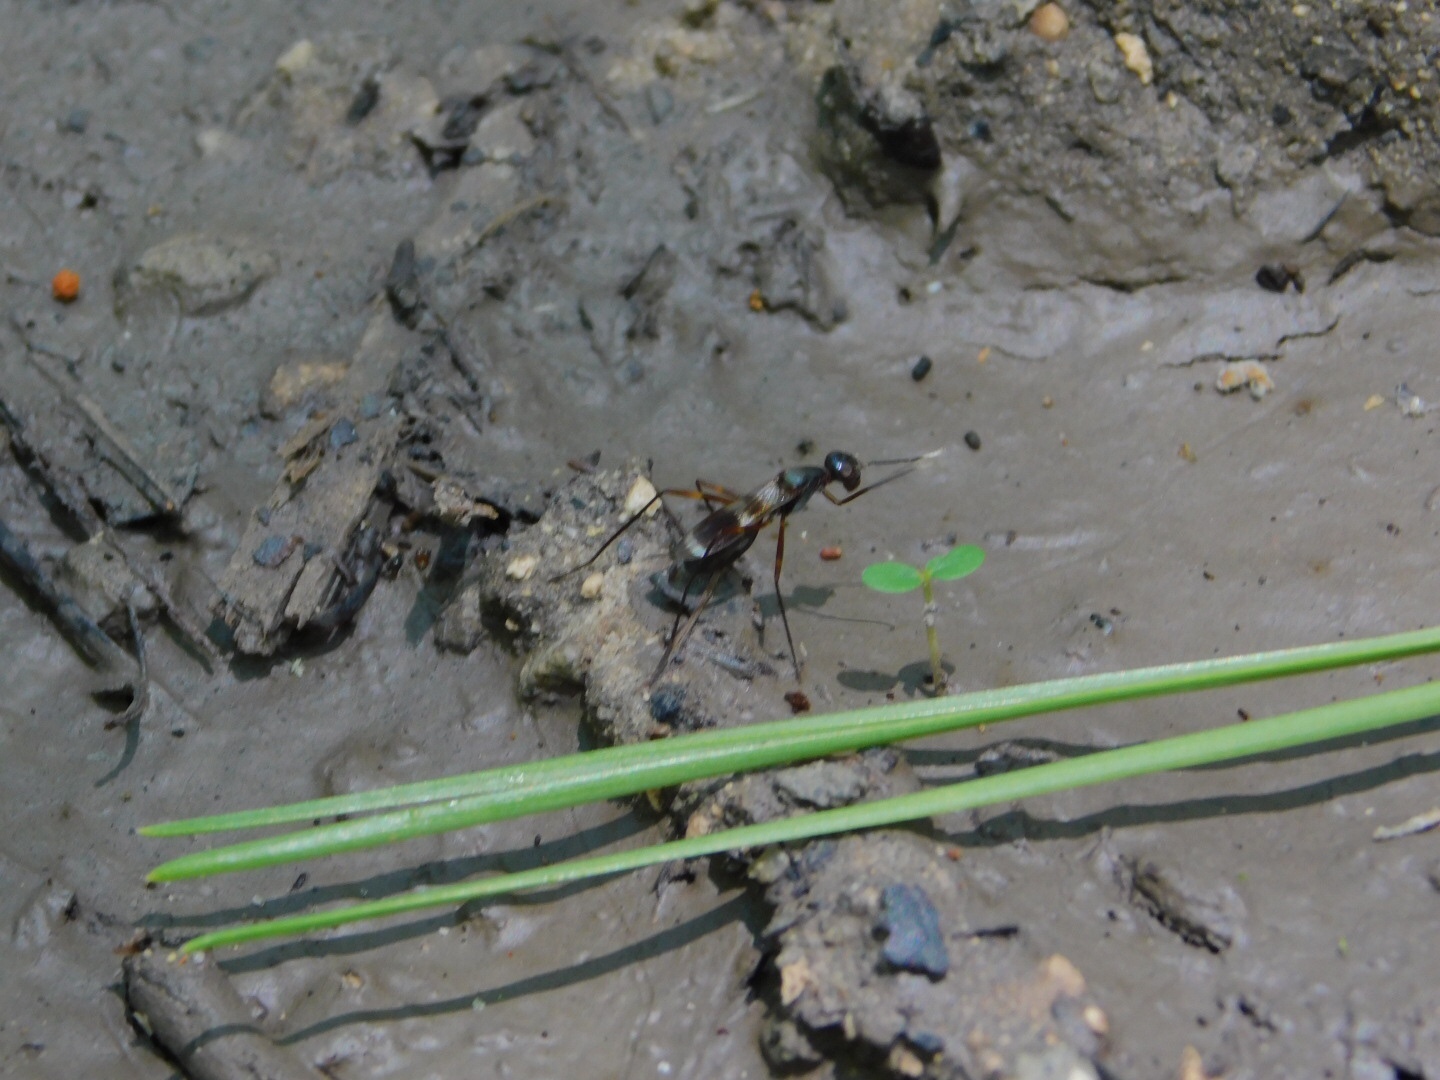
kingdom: Animalia
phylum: Arthropoda
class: Insecta
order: Diptera
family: Micropezidae
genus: Taeniaptera
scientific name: Taeniaptera trivittata
